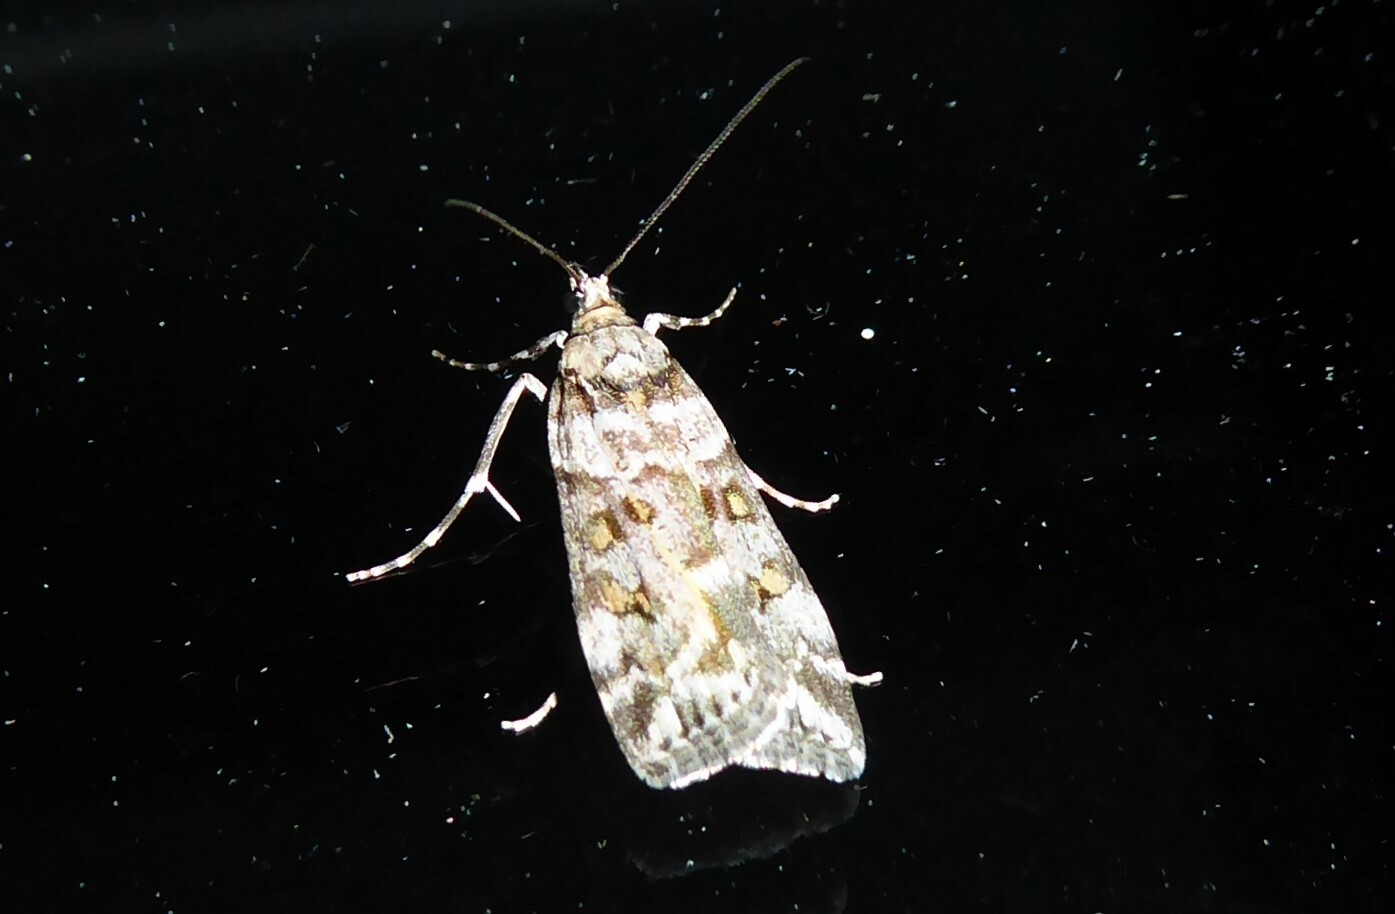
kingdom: Animalia
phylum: Arthropoda
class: Insecta
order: Lepidoptera
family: Crambidae
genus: Scoparia
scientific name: Scoparia tetracycla
